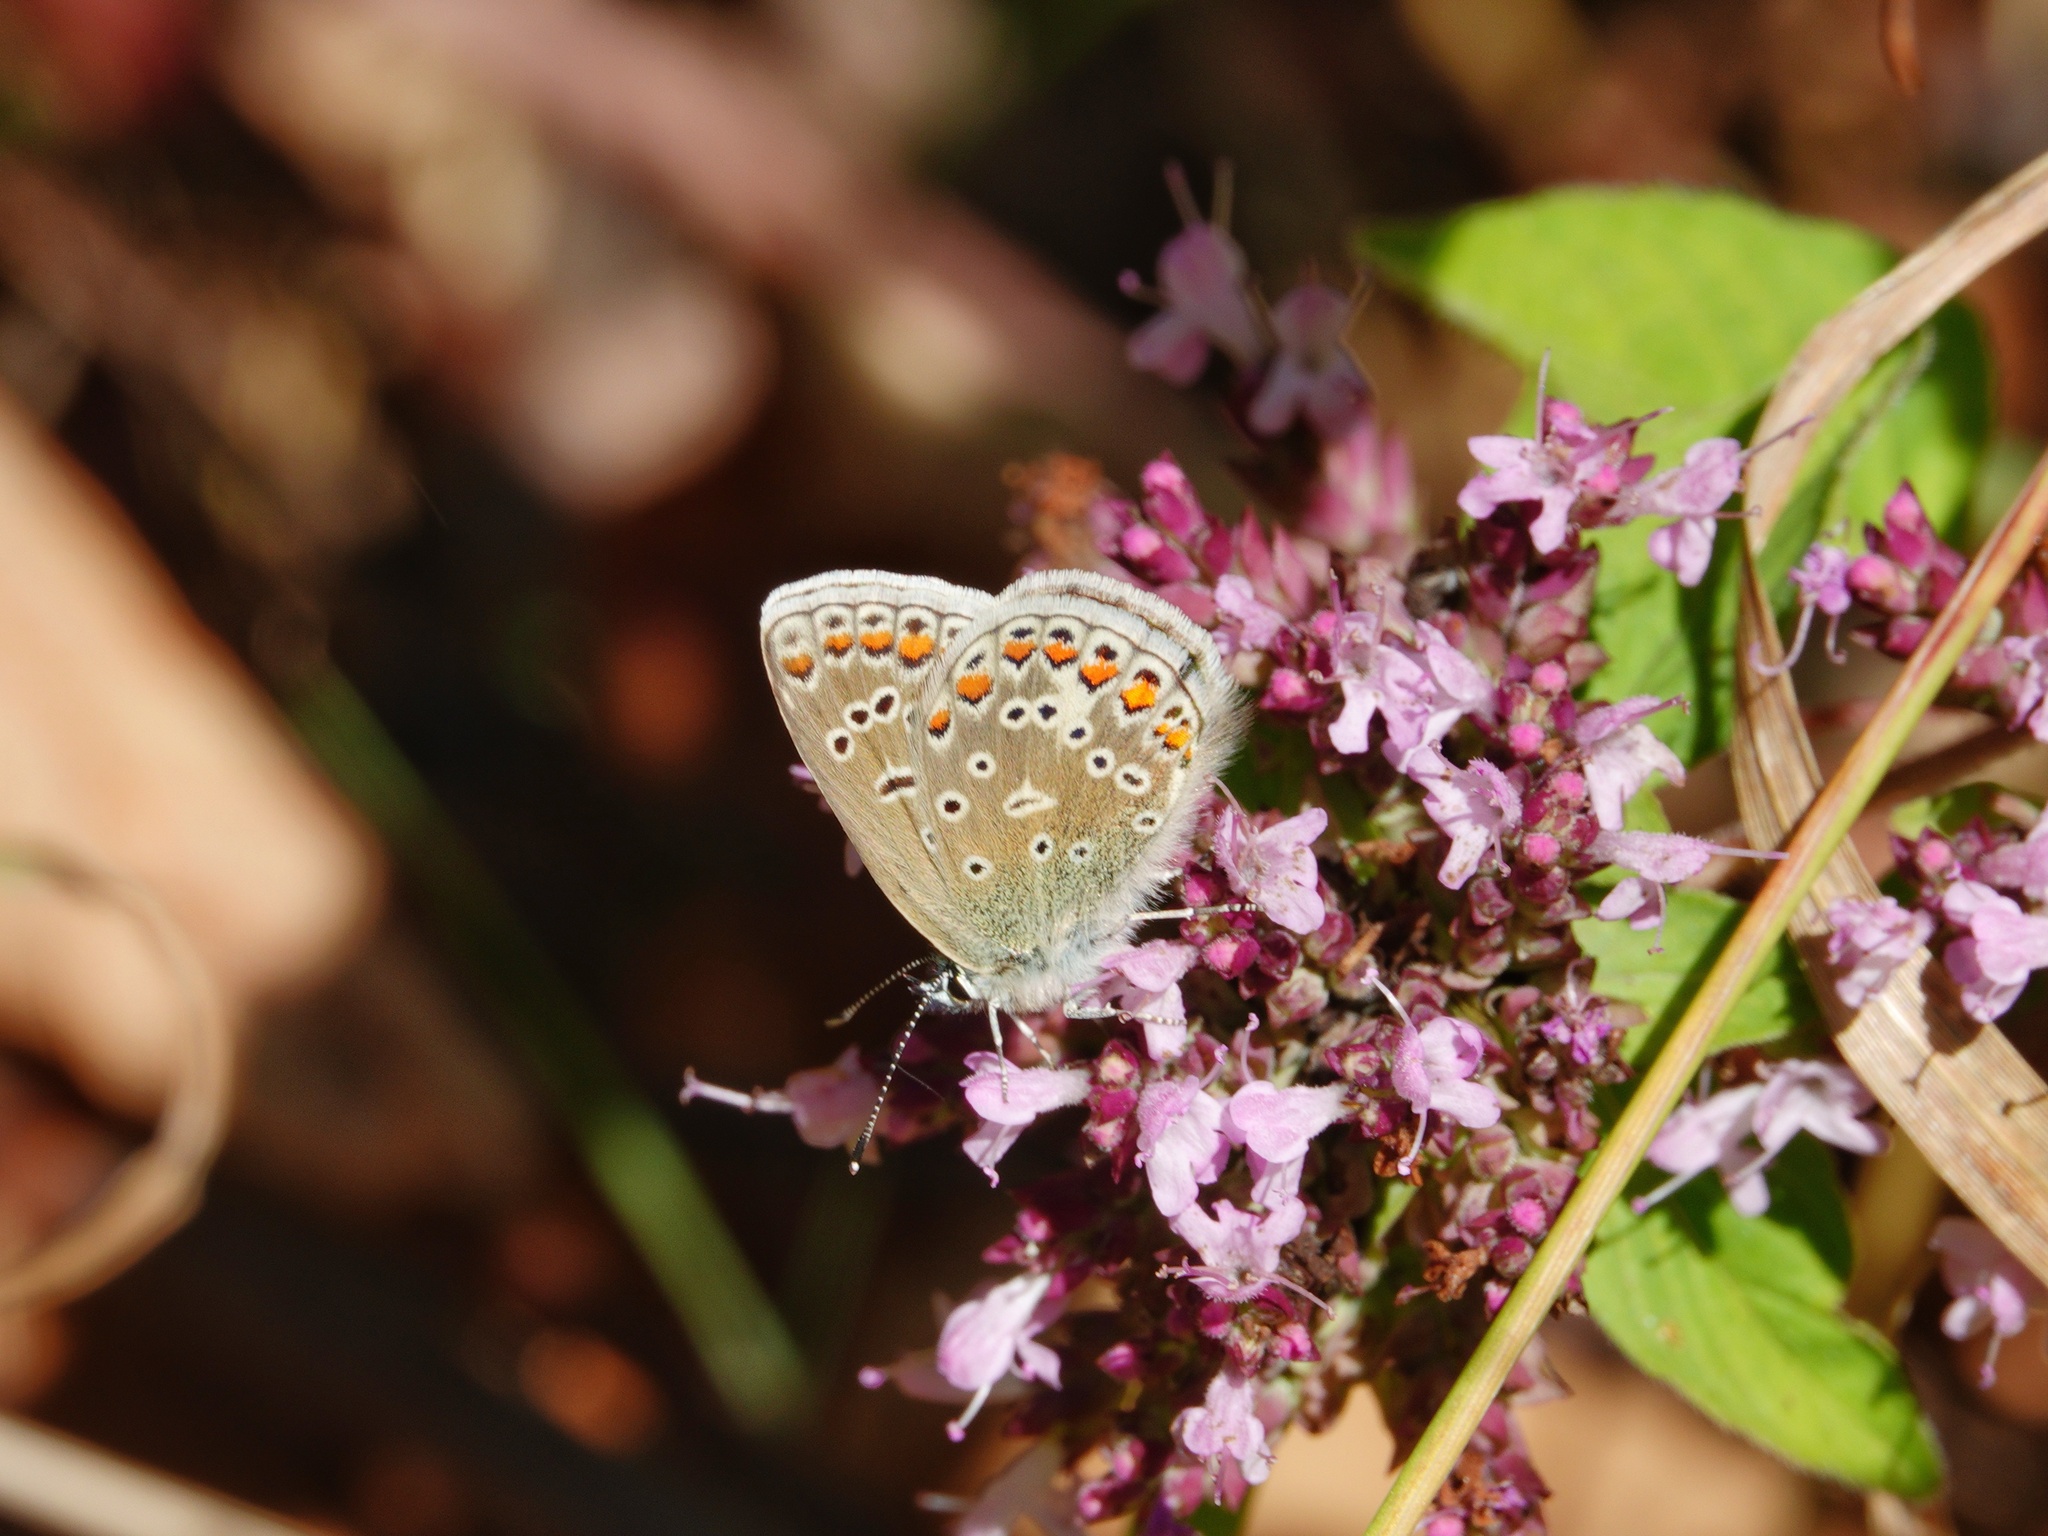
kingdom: Animalia
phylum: Arthropoda
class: Insecta
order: Lepidoptera
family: Lycaenidae
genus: Polyommatus
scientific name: Polyommatus icarus
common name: Common blue
